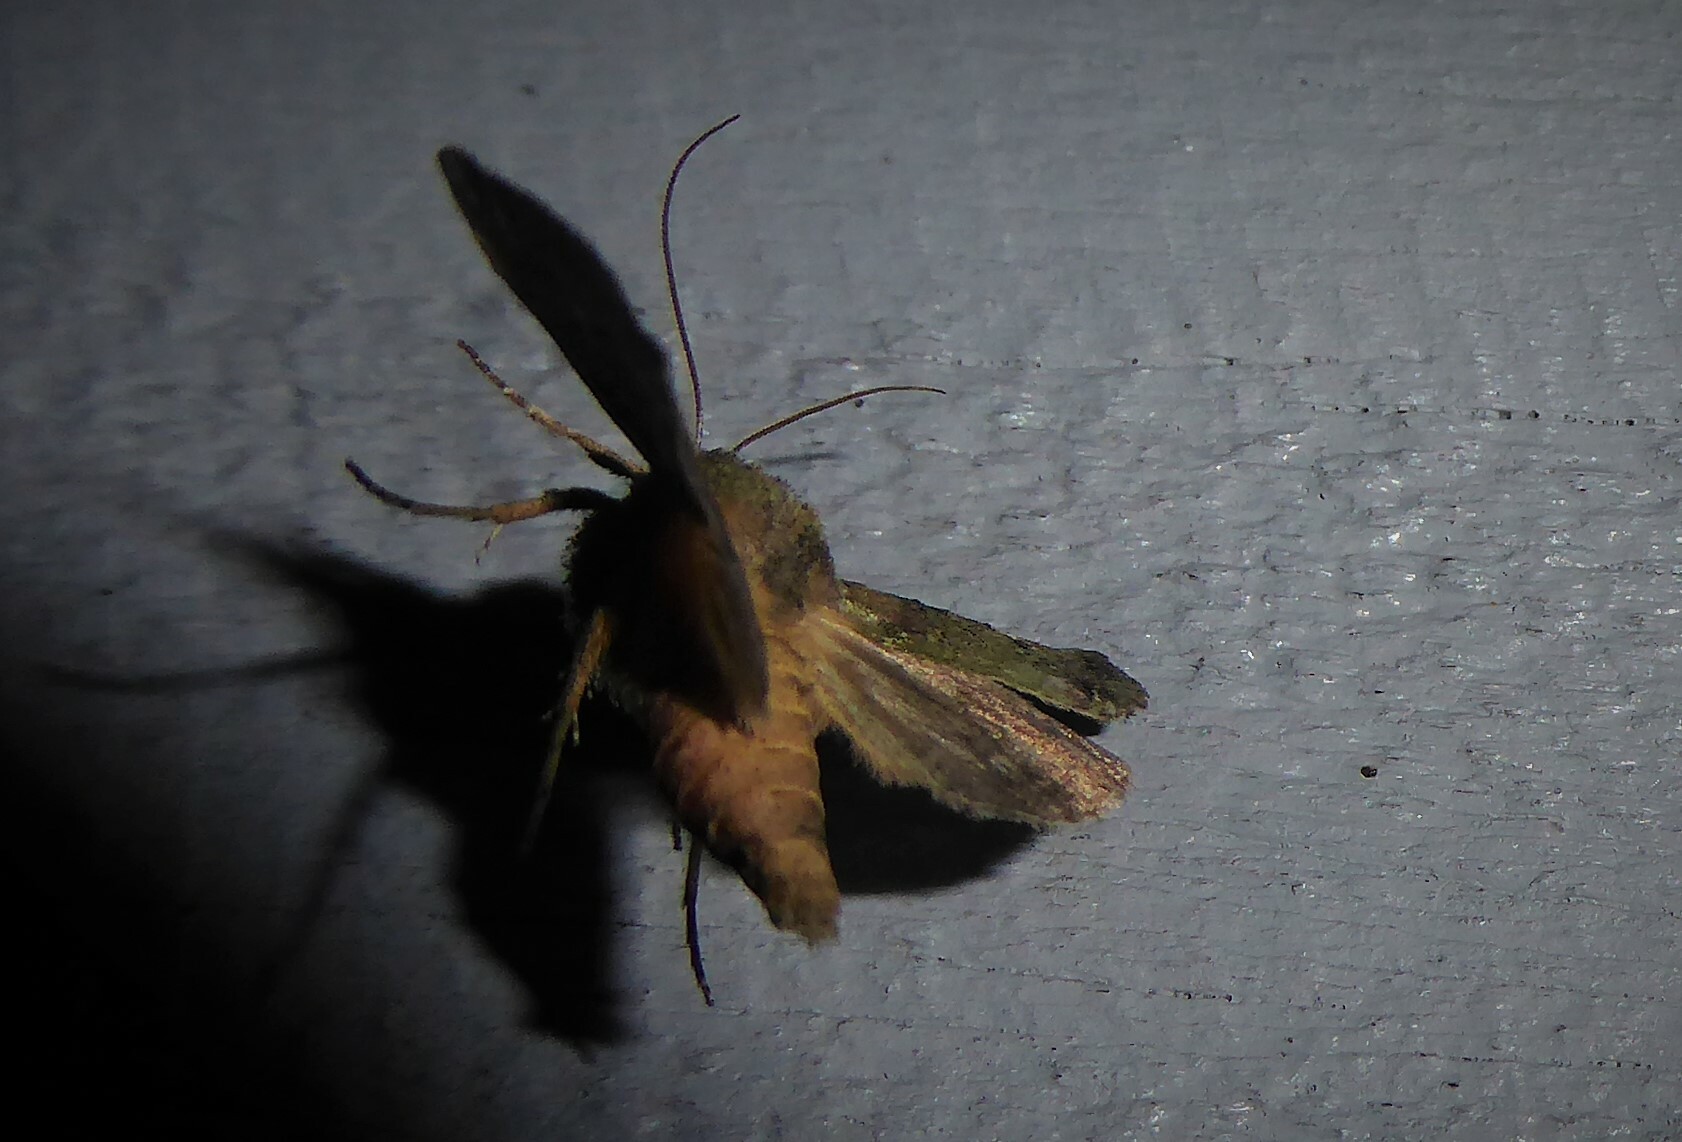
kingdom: Animalia
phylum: Arthropoda
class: Insecta
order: Lepidoptera
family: Noctuidae
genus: Meterana
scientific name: Meterana levis
